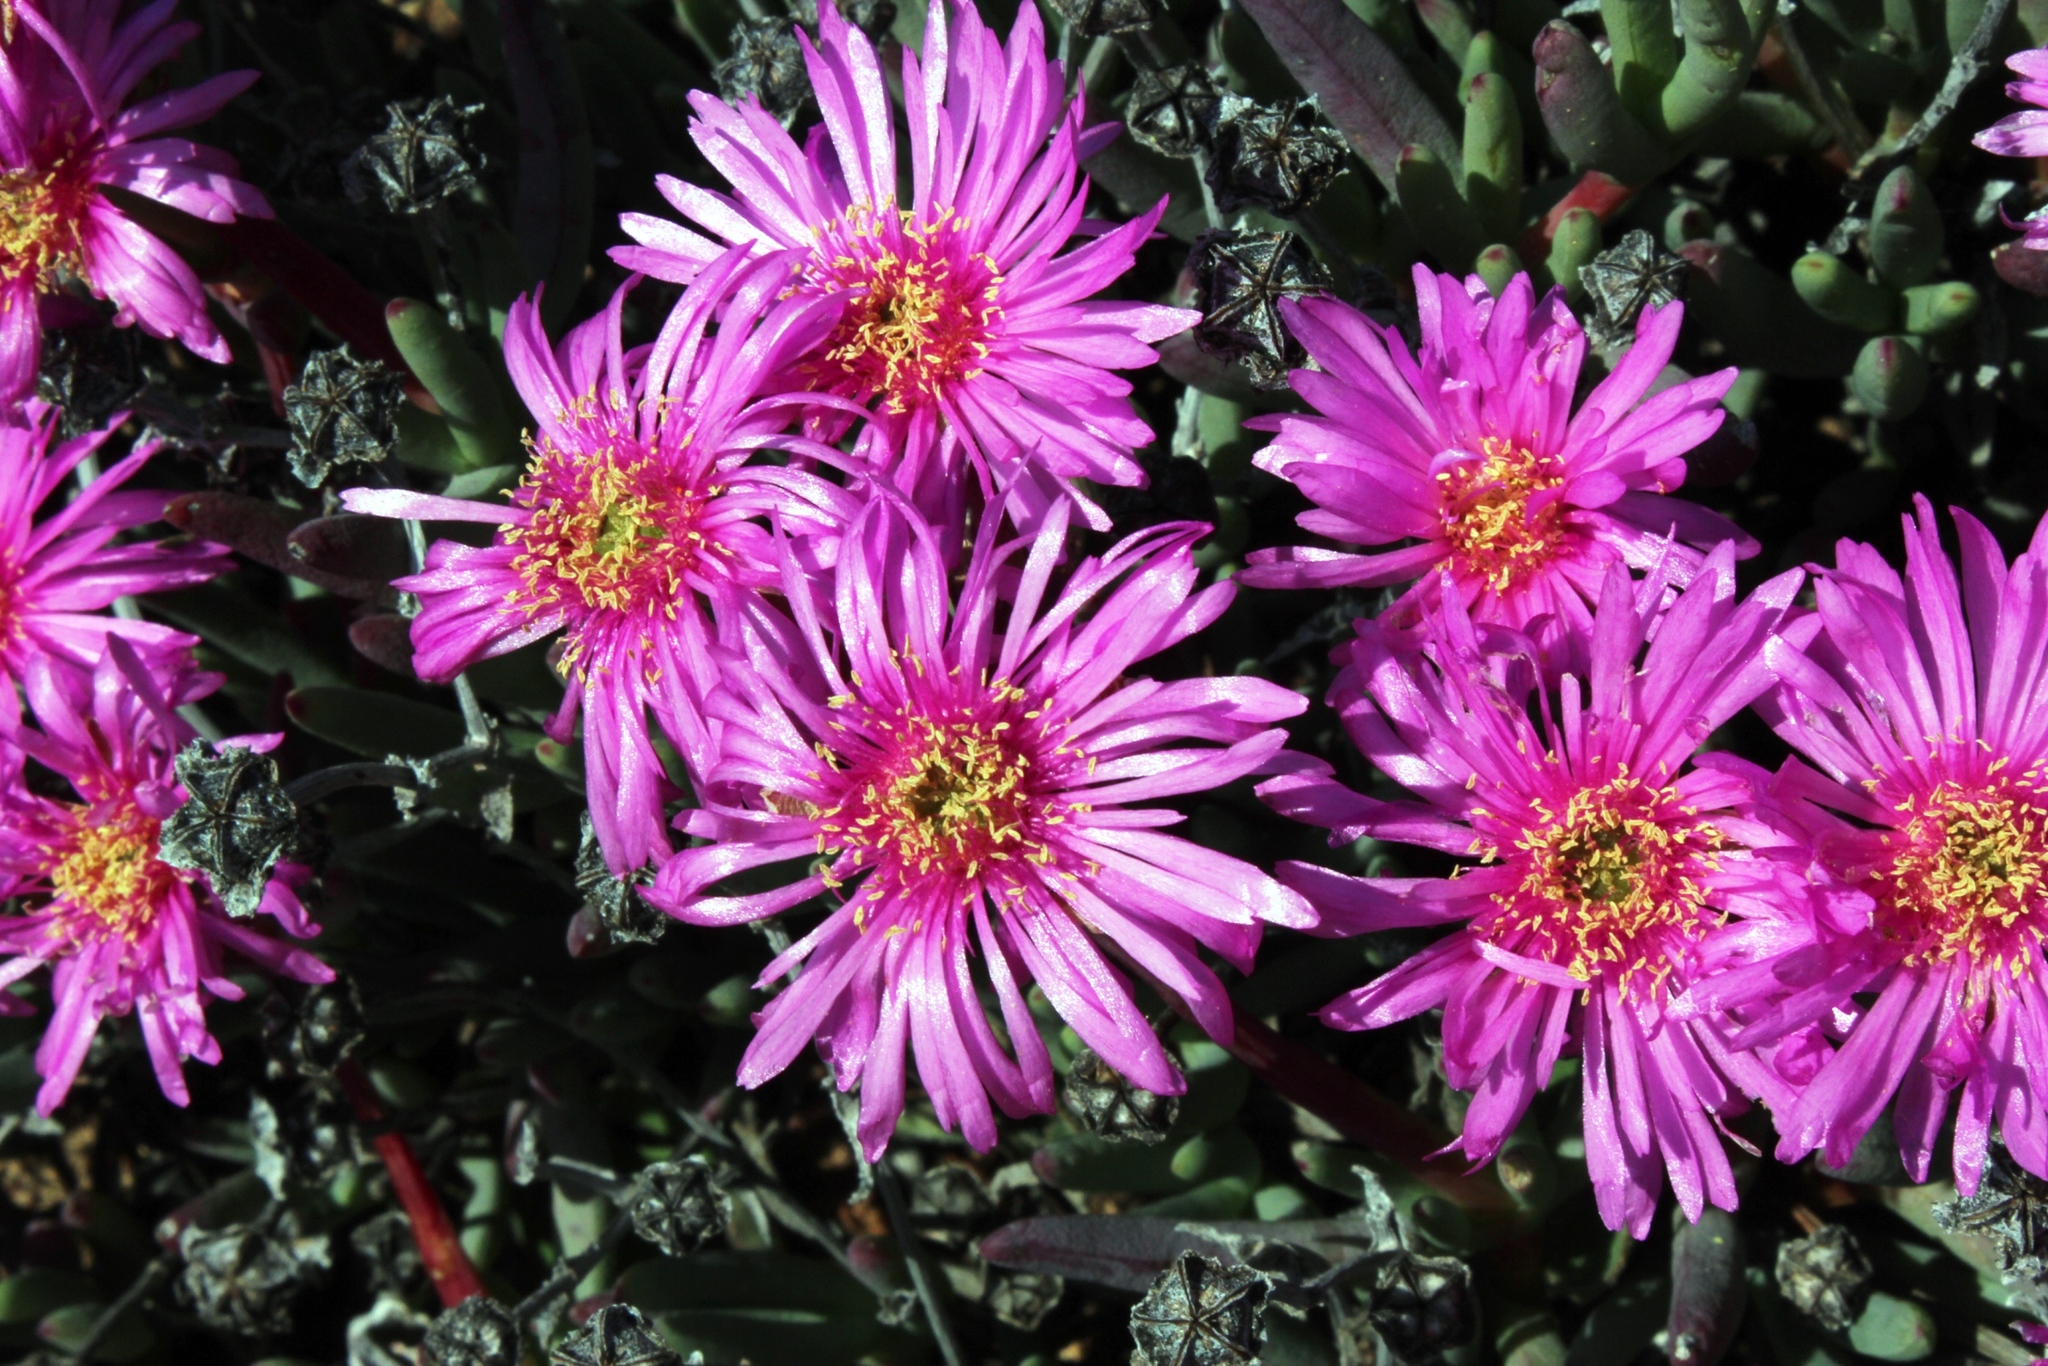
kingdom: Plantae
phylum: Tracheophyta
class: Magnoliopsida
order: Caryophyllales
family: Aizoaceae
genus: Lampranthus
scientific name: Lampranthus plautus
